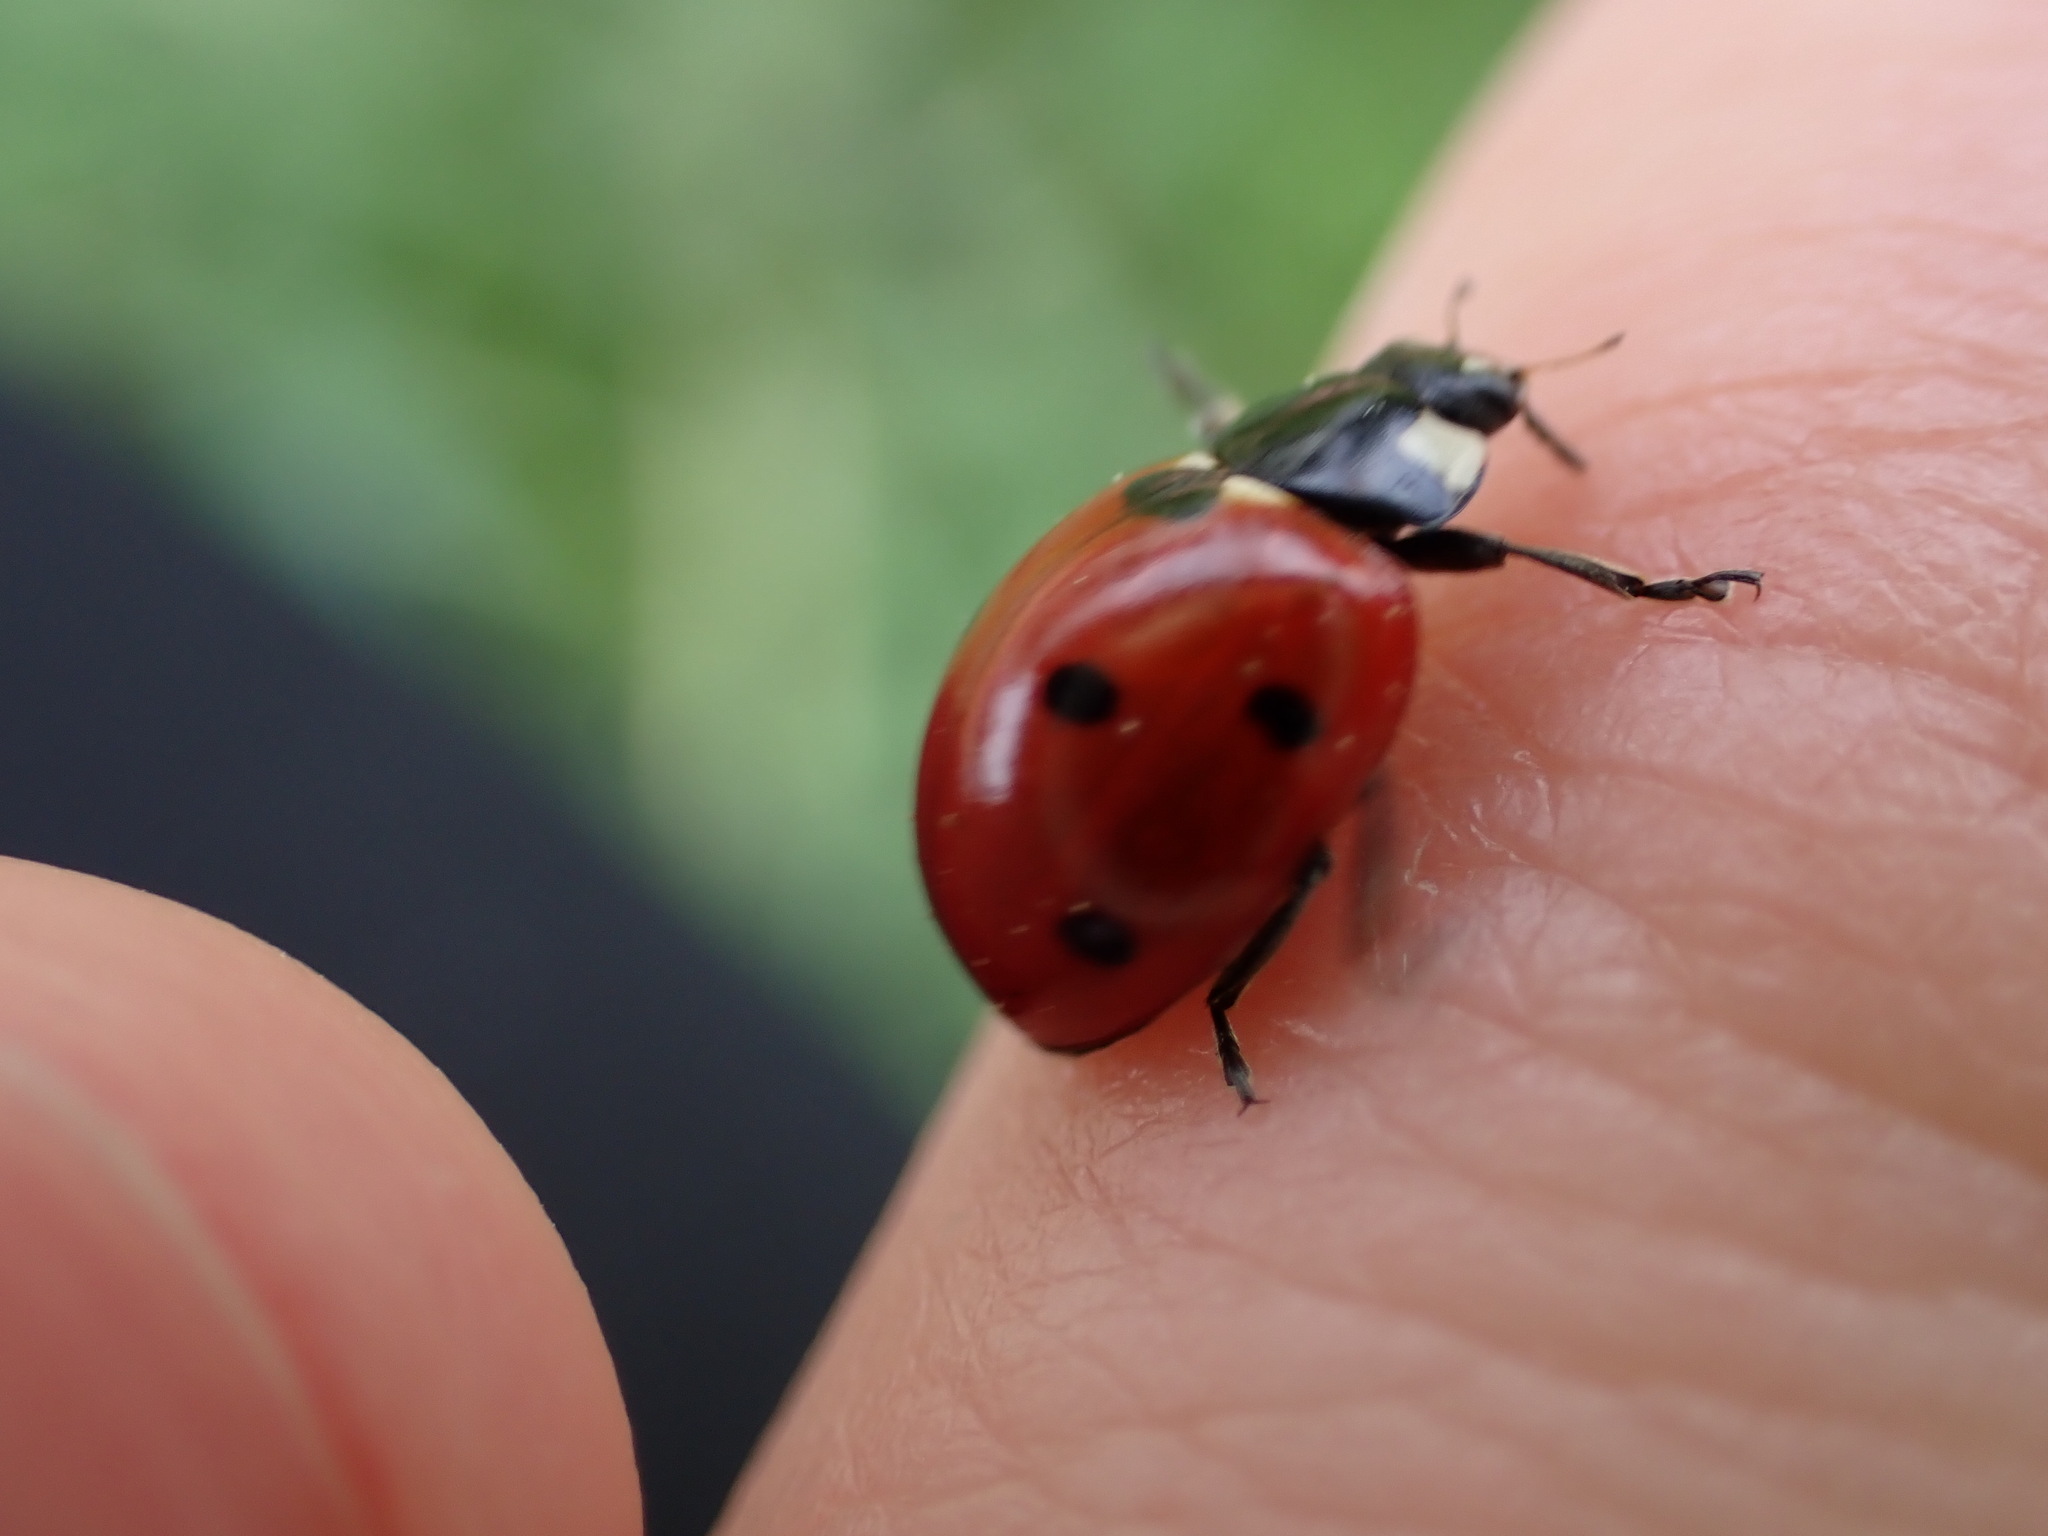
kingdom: Animalia
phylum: Arthropoda
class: Insecta
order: Coleoptera
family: Coccinellidae
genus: Coccinella
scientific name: Coccinella septempunctata
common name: Sevenspotted lady beetle
